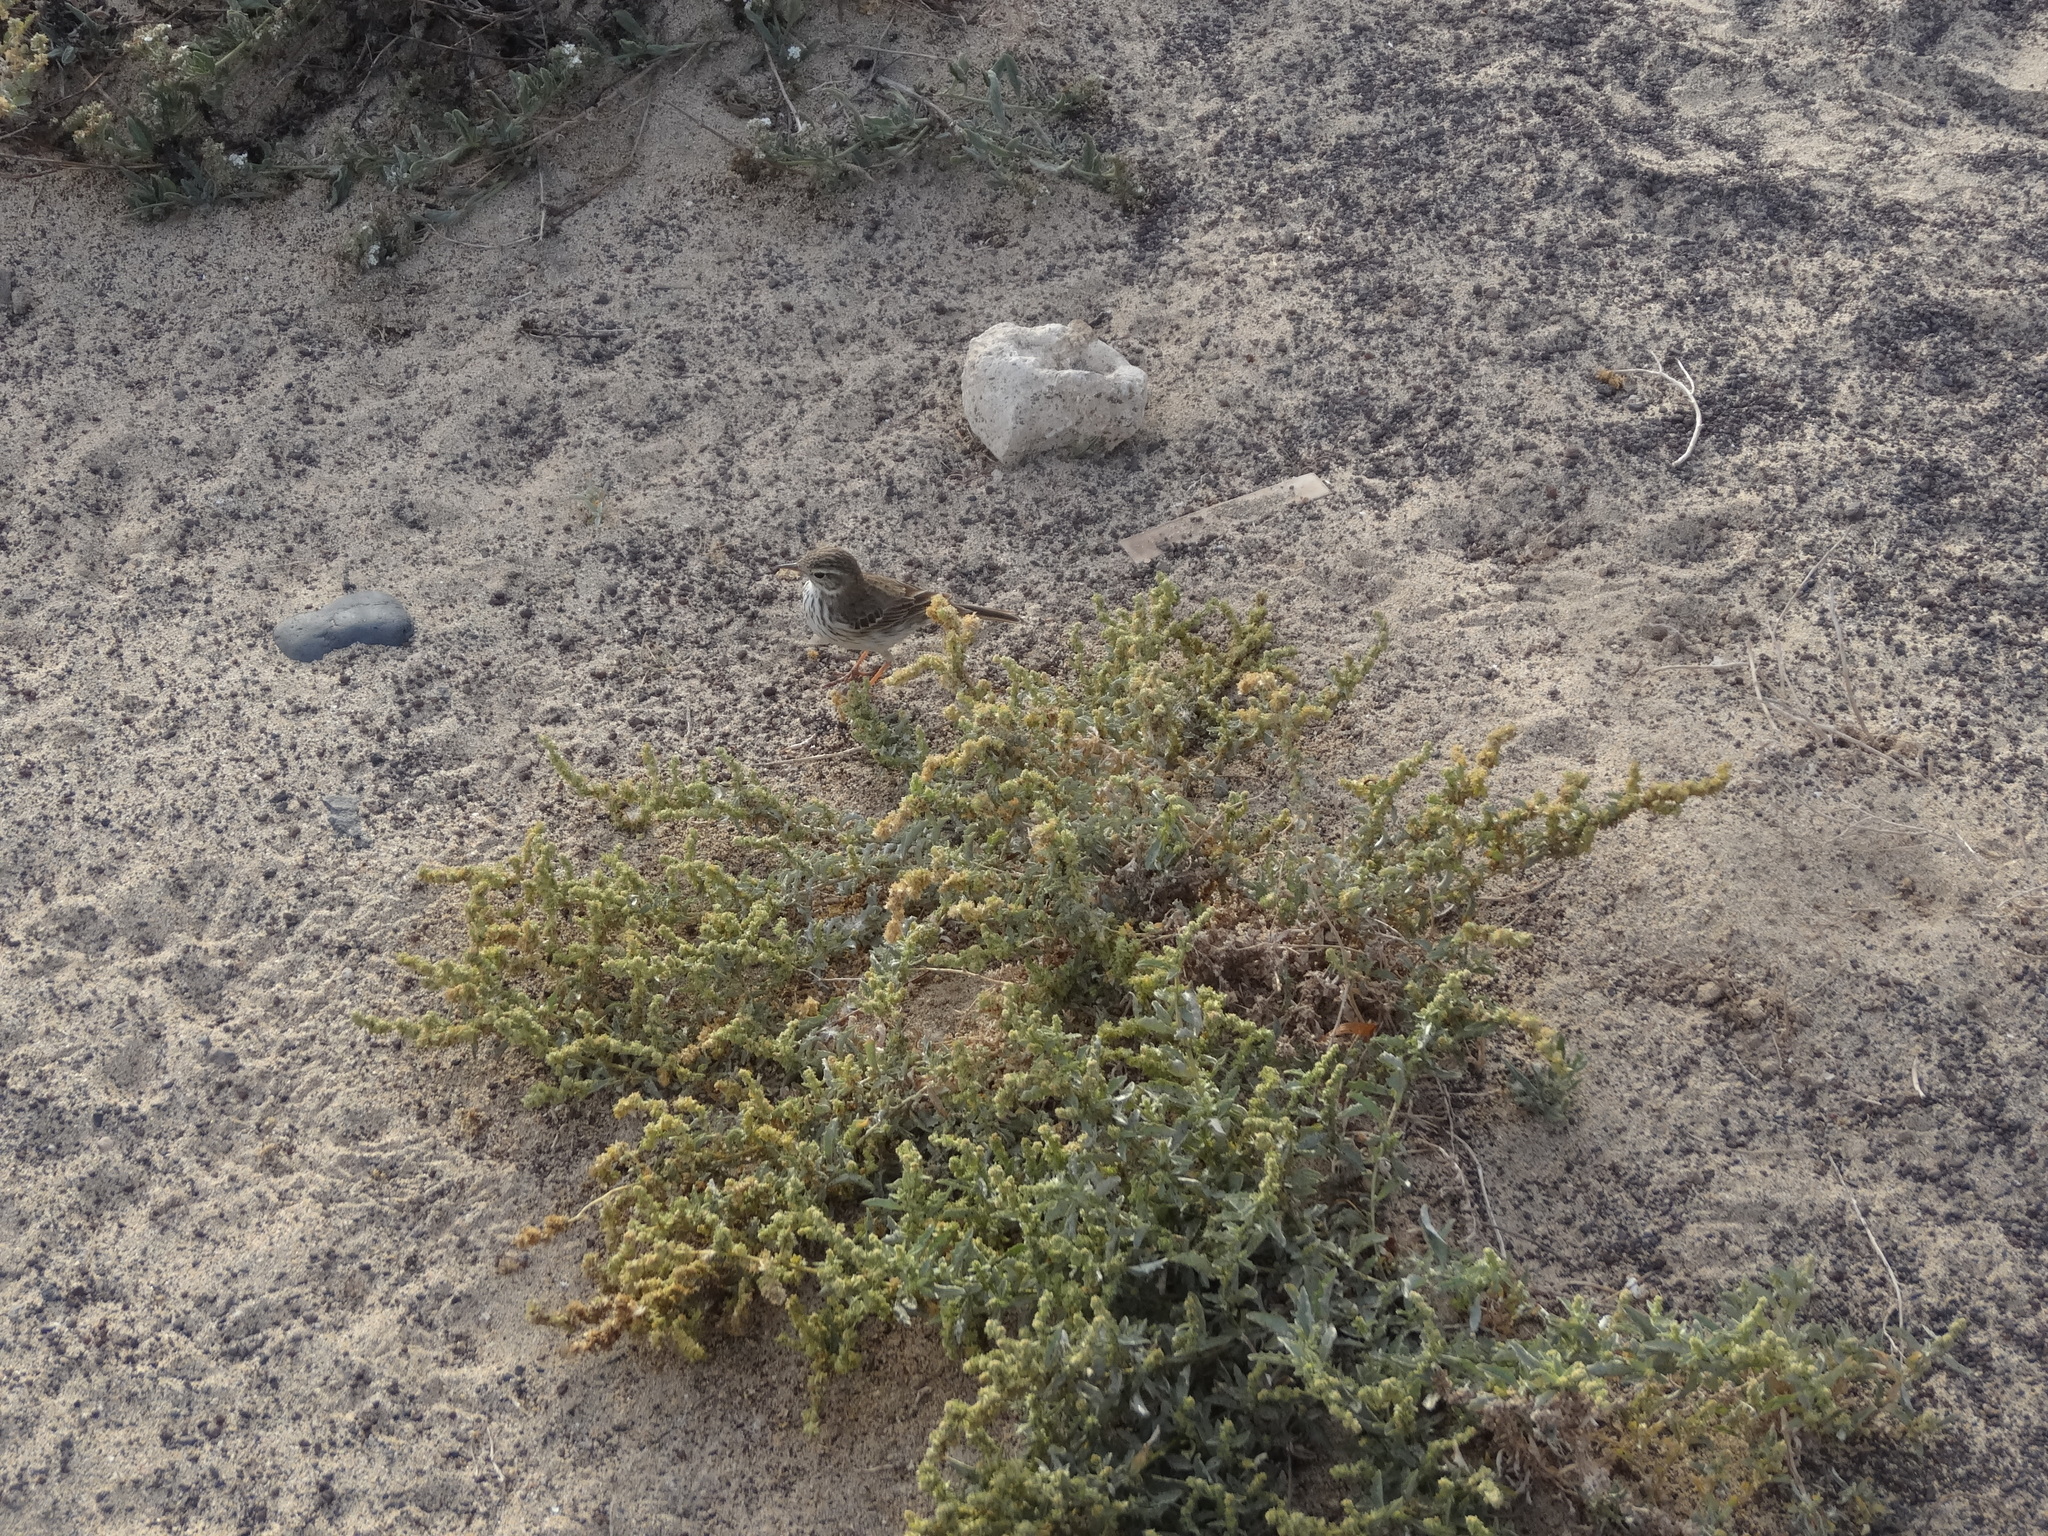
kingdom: Animalia
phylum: Chordata
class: Aves
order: Passeriformes
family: Motacillidae
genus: Anthus
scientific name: Anthus berthelotii
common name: Berthelot's pipit
